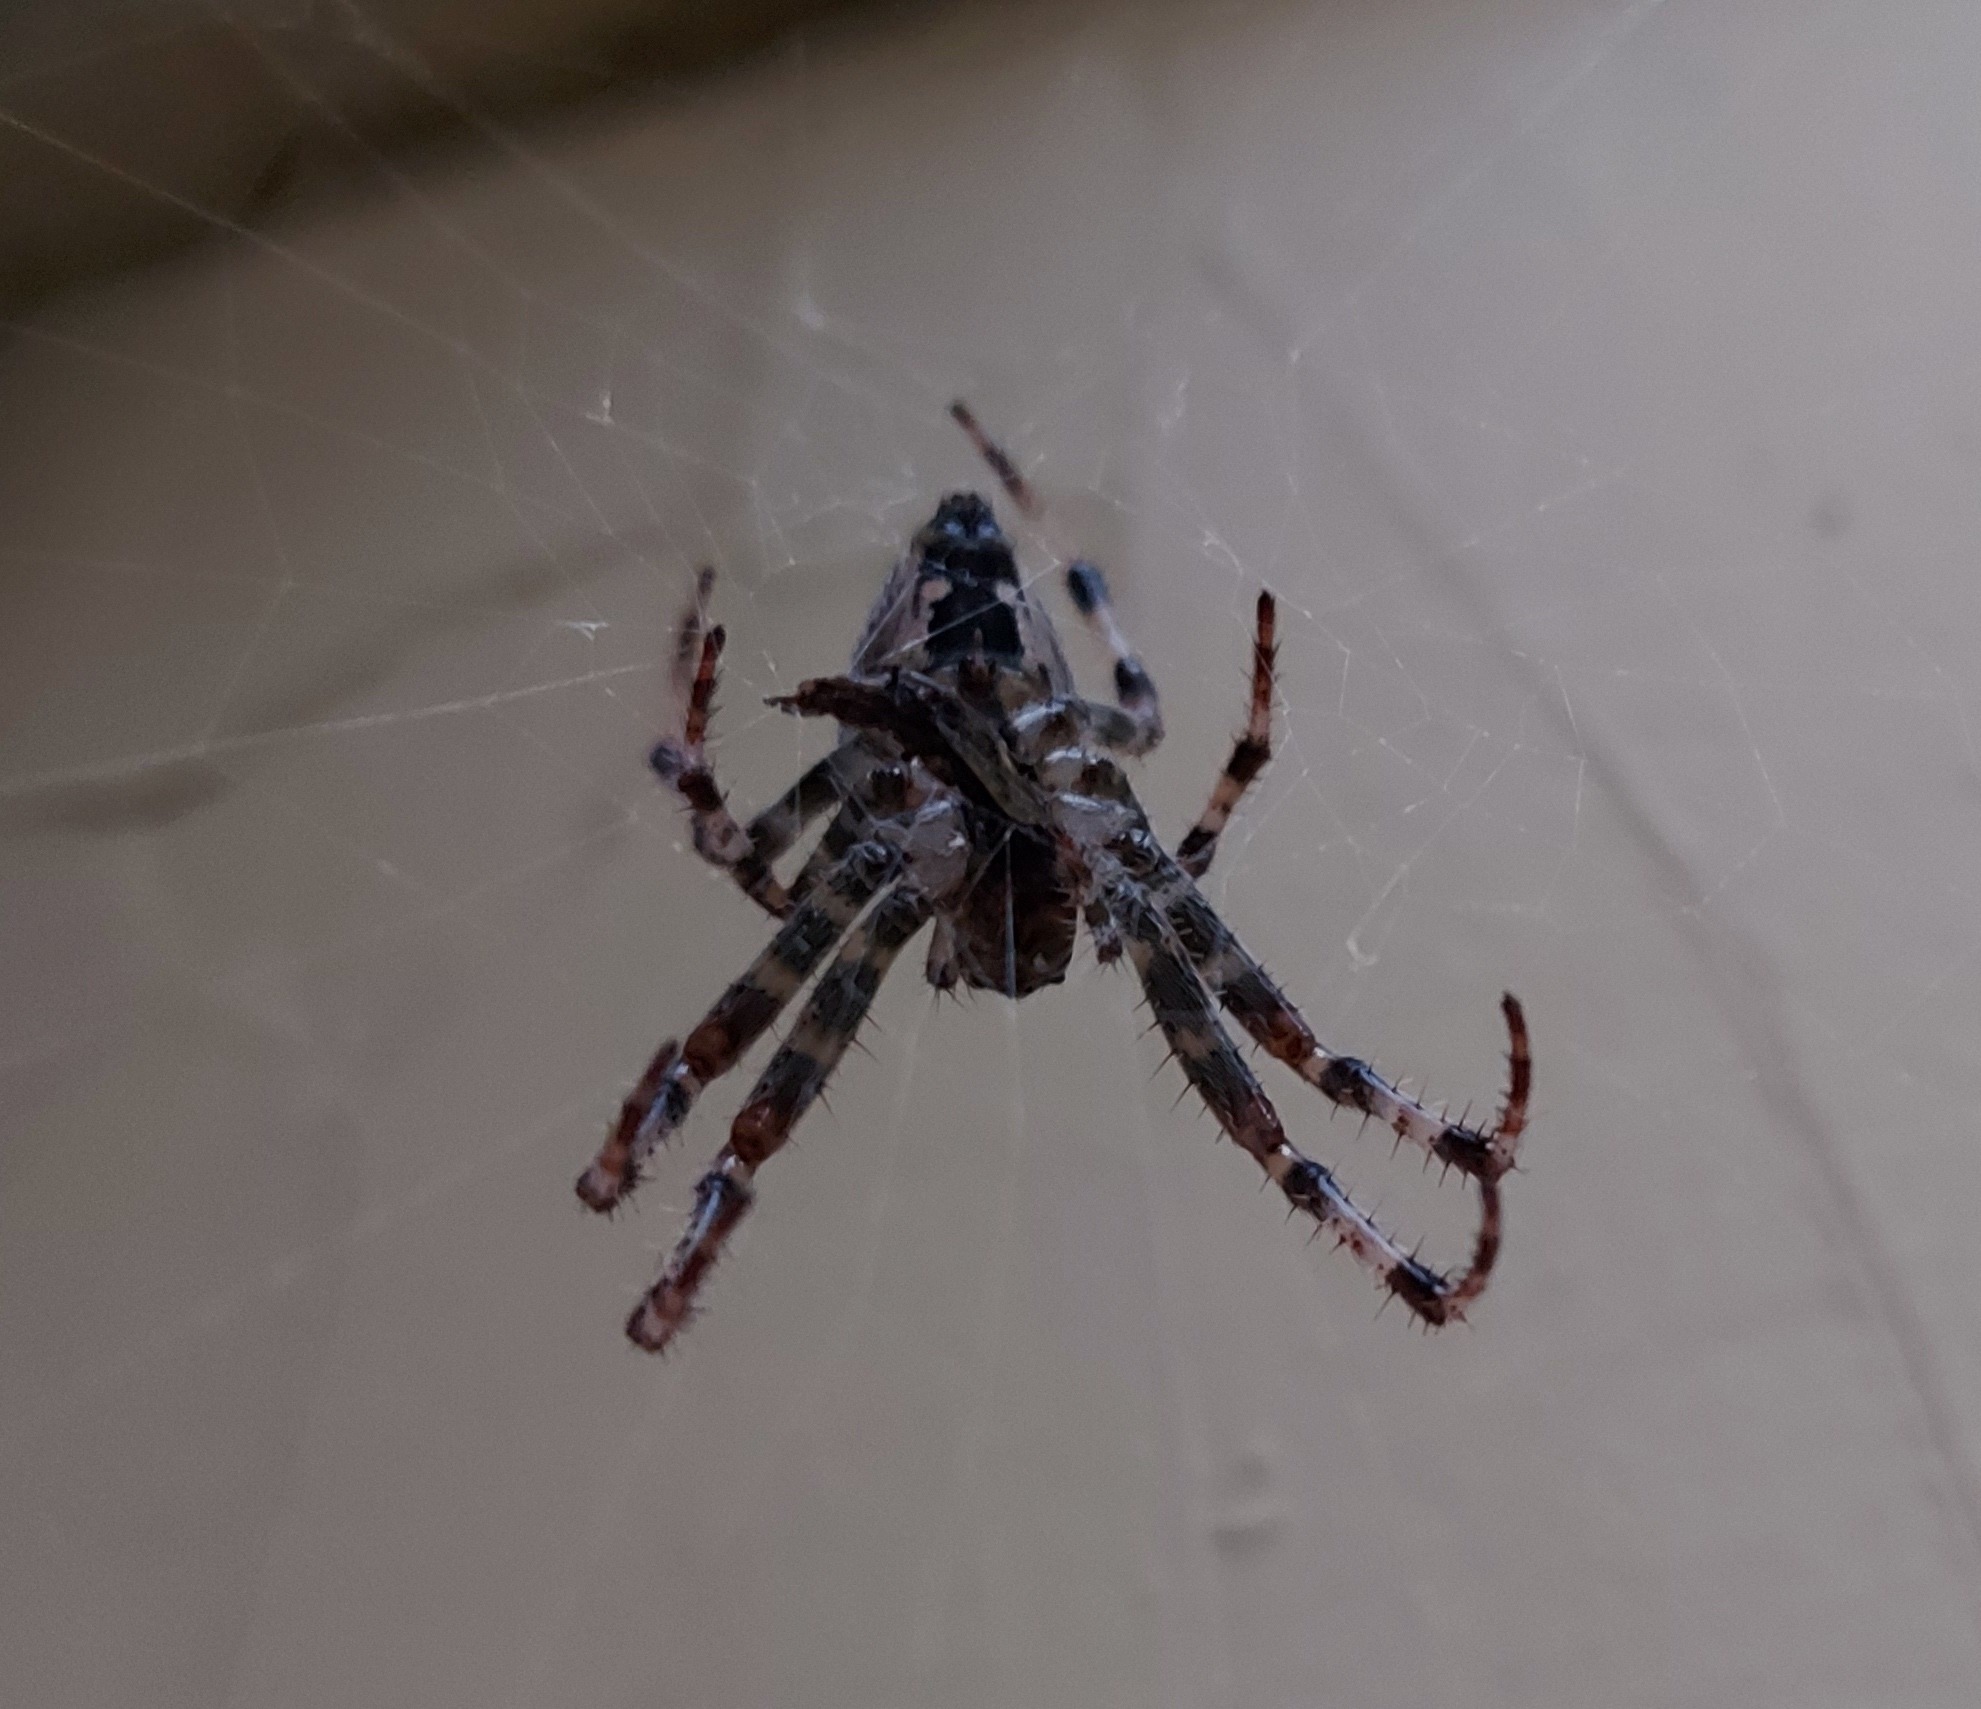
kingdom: Animalia
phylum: Arthropoda
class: Arachnida
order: Araneae
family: Araneidae
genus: Araneus
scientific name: Araneus diadematus
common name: Cross orbweaver
